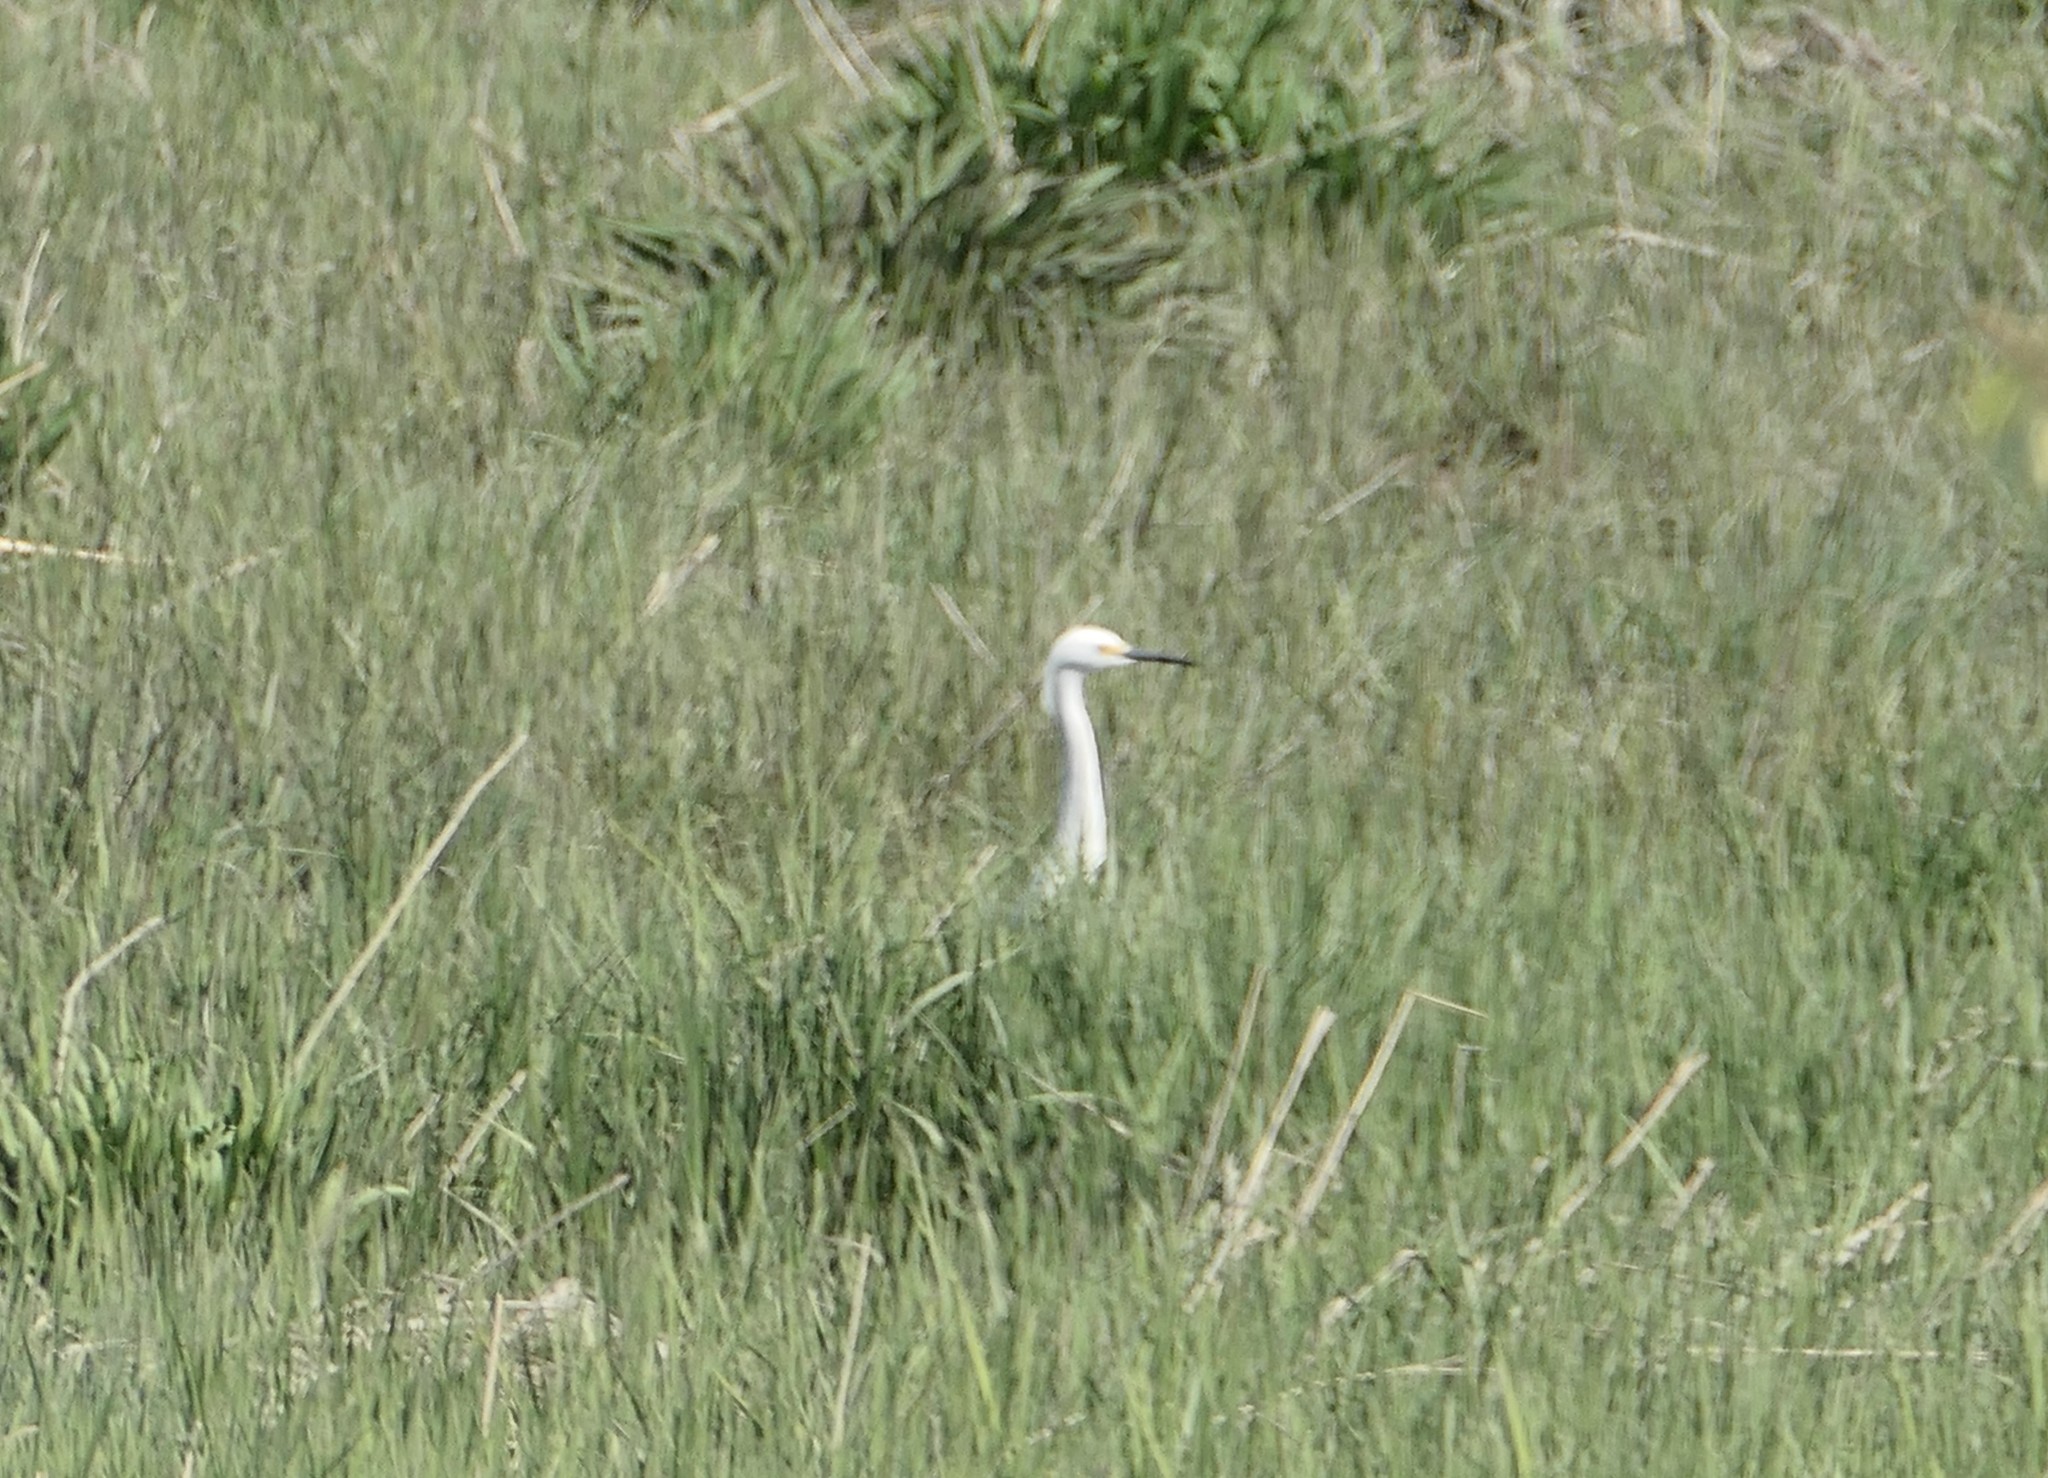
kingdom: Animalia
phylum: Chordata
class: Aves
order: Pelecaniformes
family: Ardeidae
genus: Egretta
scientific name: Egretta thula
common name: Snowy egret
